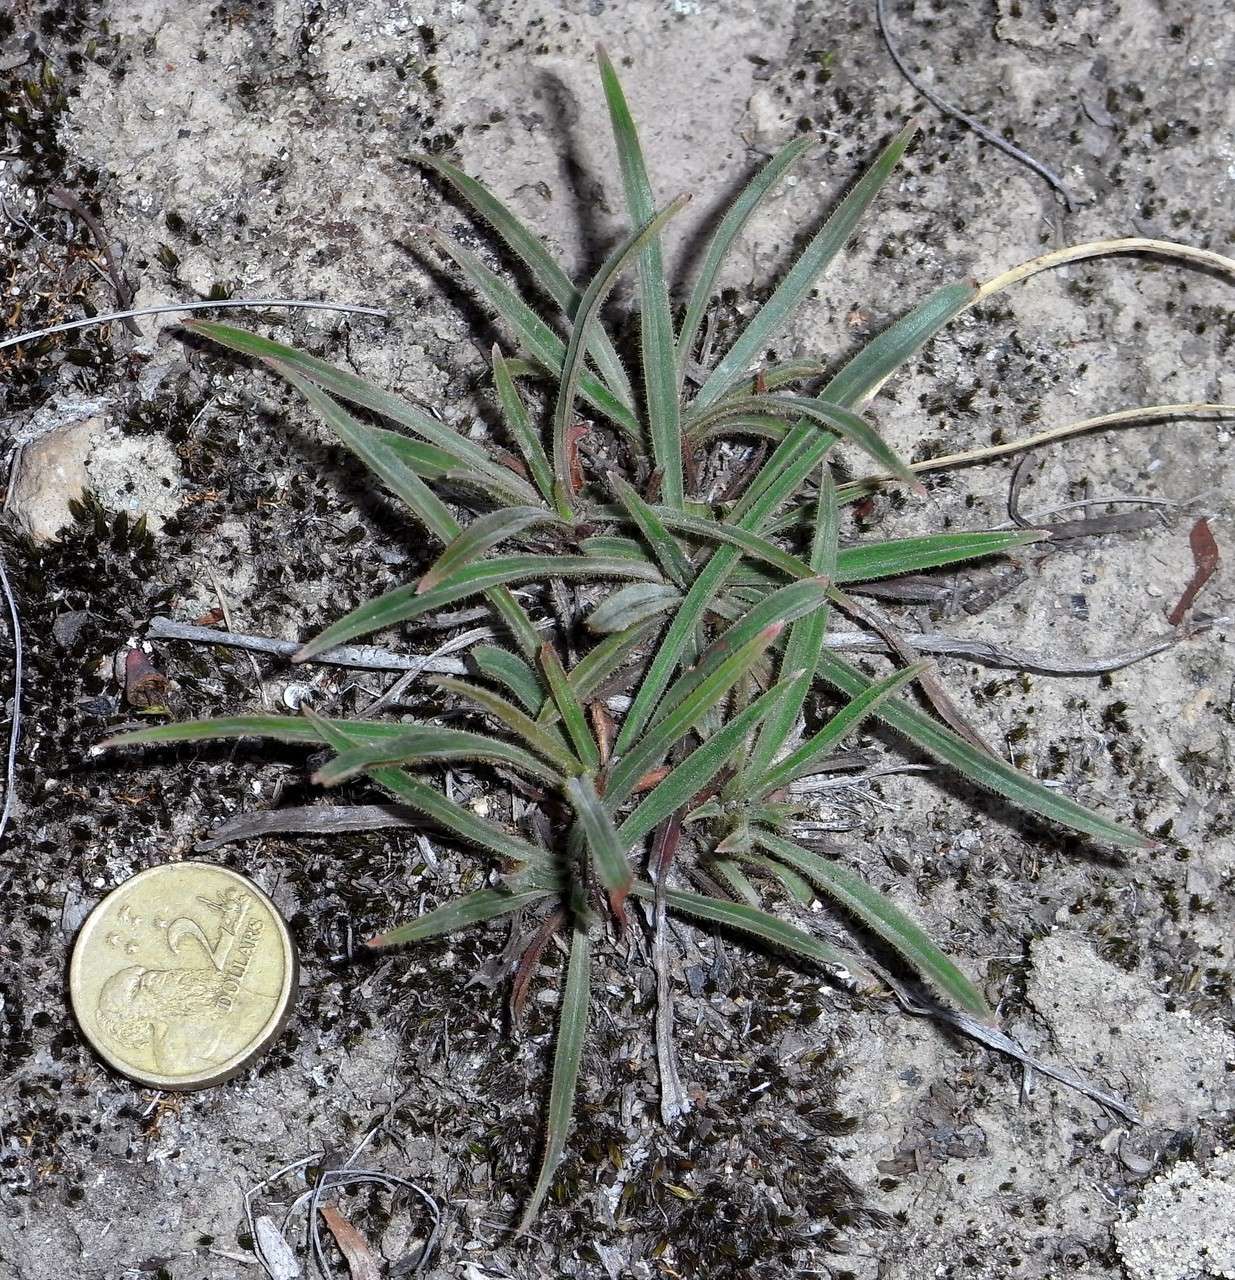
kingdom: Plantae
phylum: Tracheophyta
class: Magnoliopsida
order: Asterales
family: Stylidiaceae
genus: Stylidium
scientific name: Stylidium armeria
